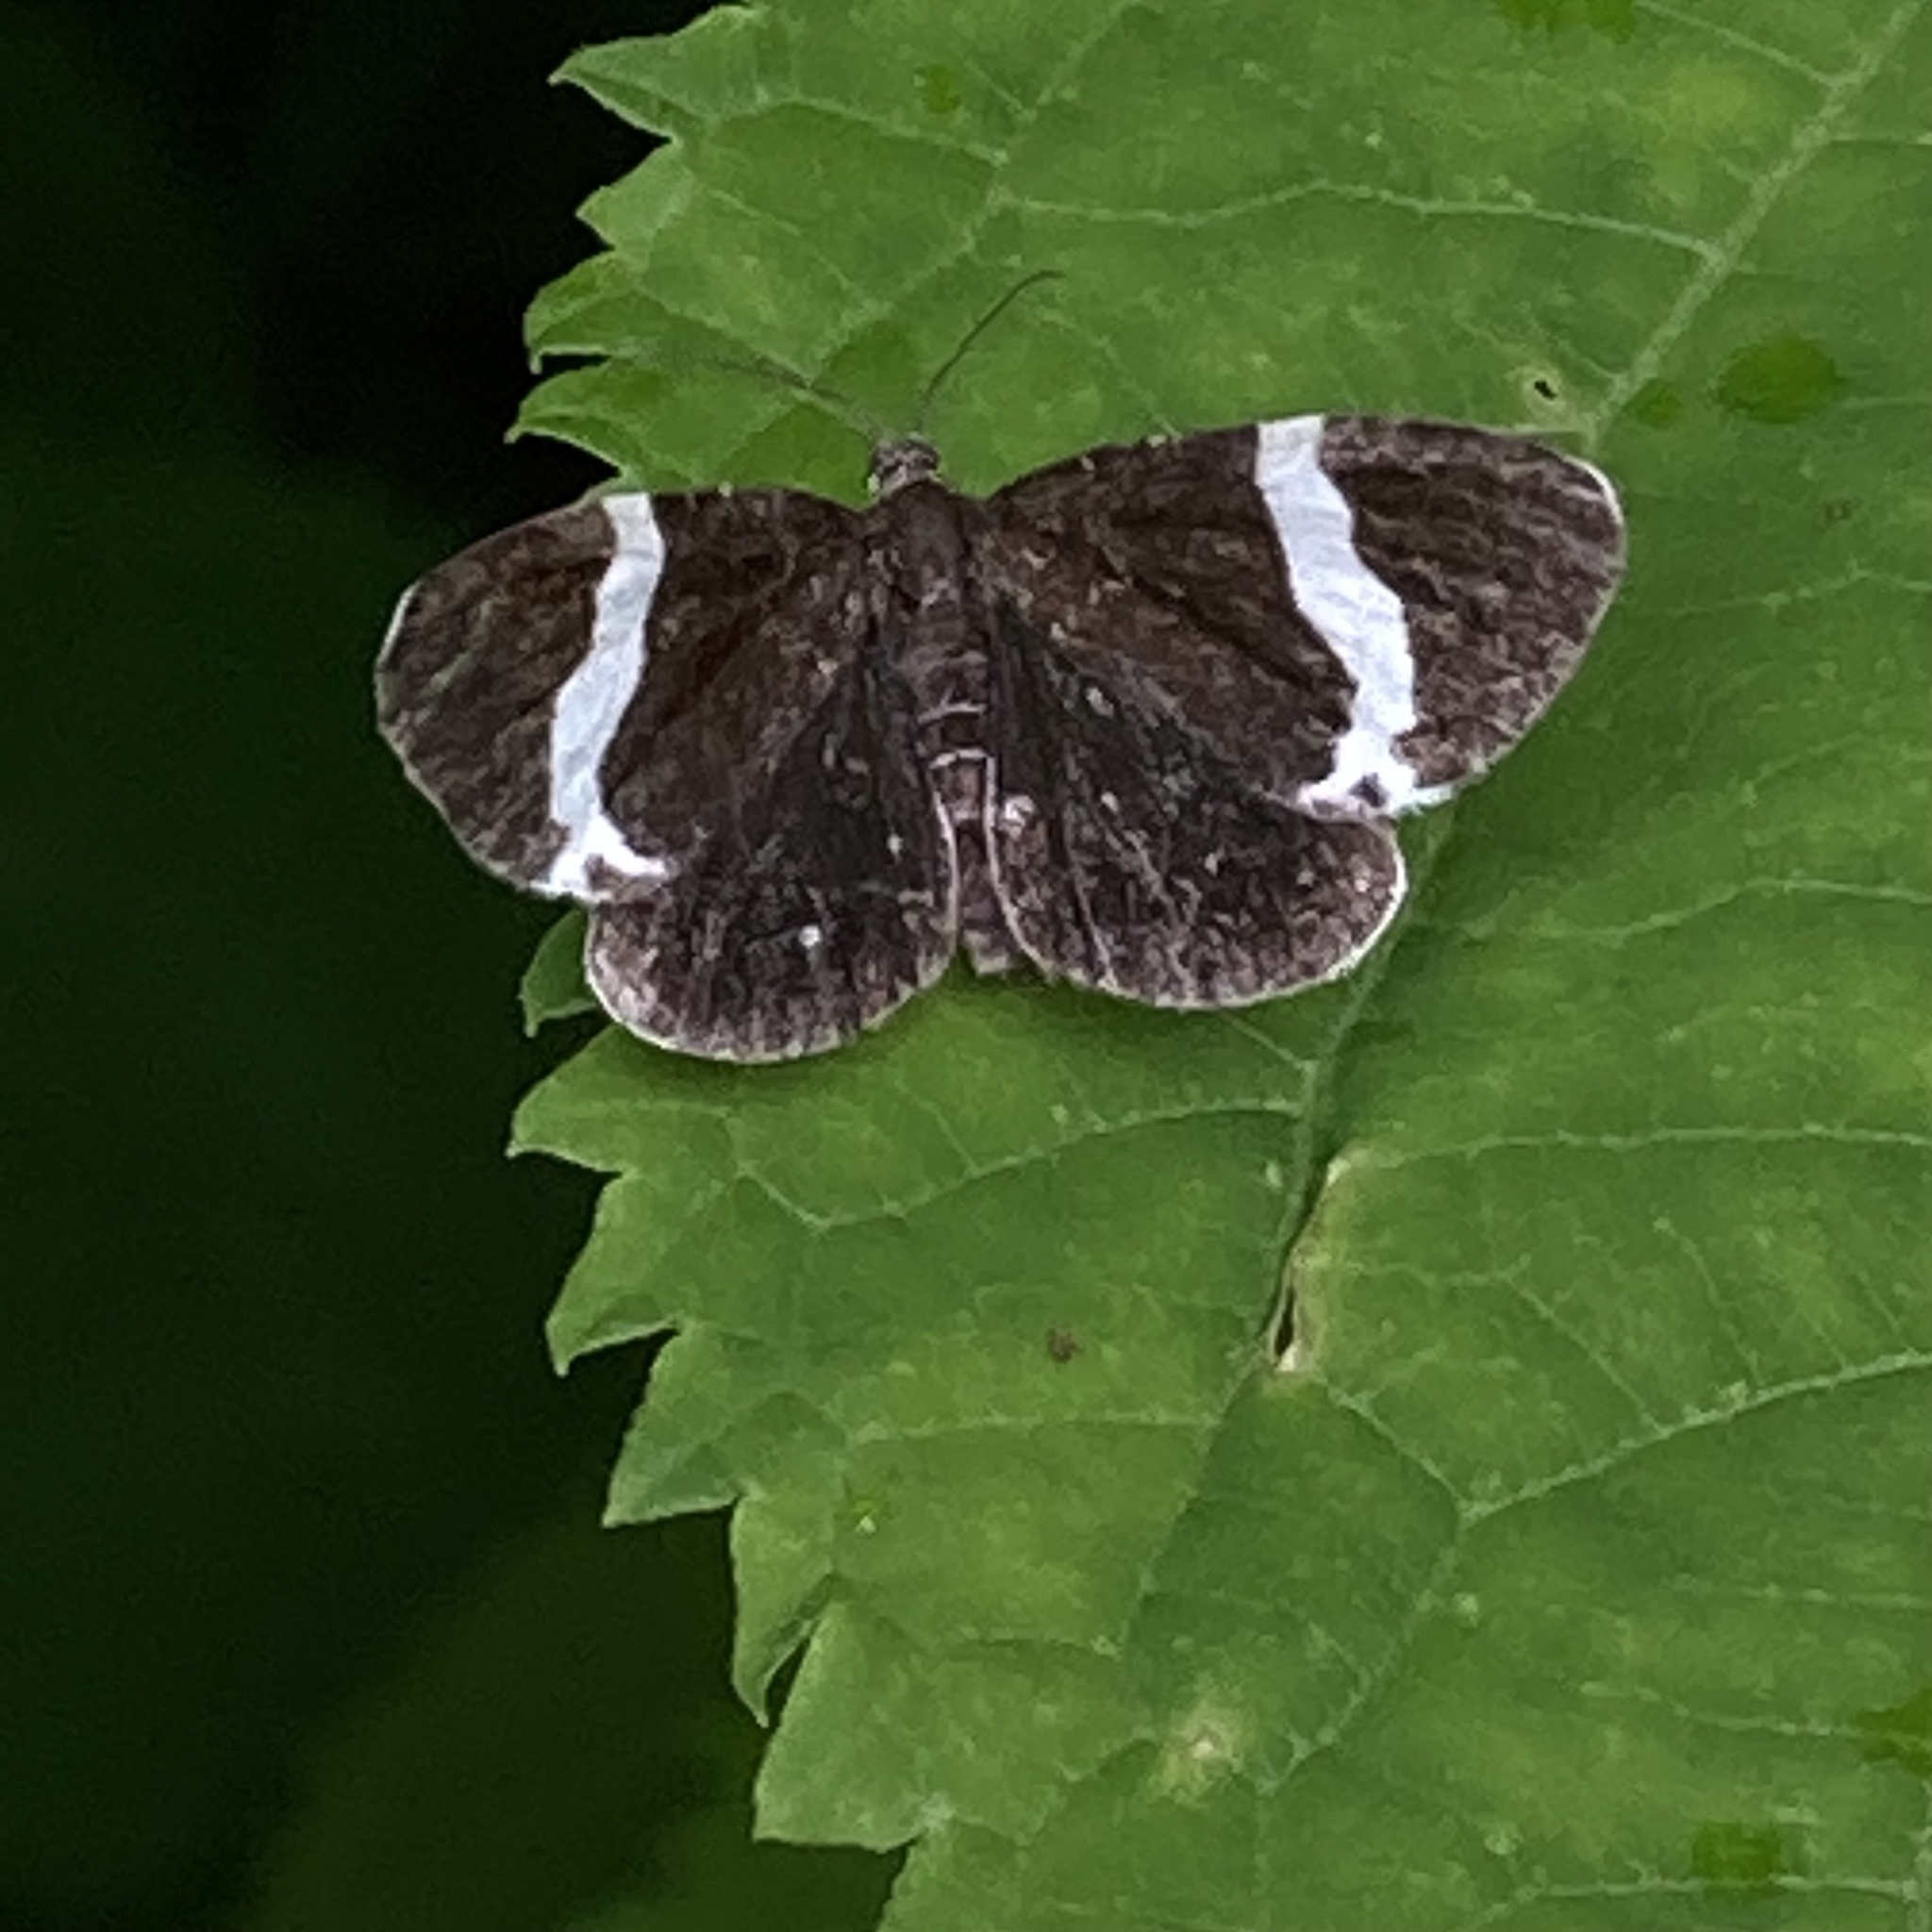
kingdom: Animalia
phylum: Arthropoda
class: Insecta
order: Lepidoptera
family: Geometridae
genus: Trichodezia
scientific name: Trichodezia albovittata
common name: White striped black
